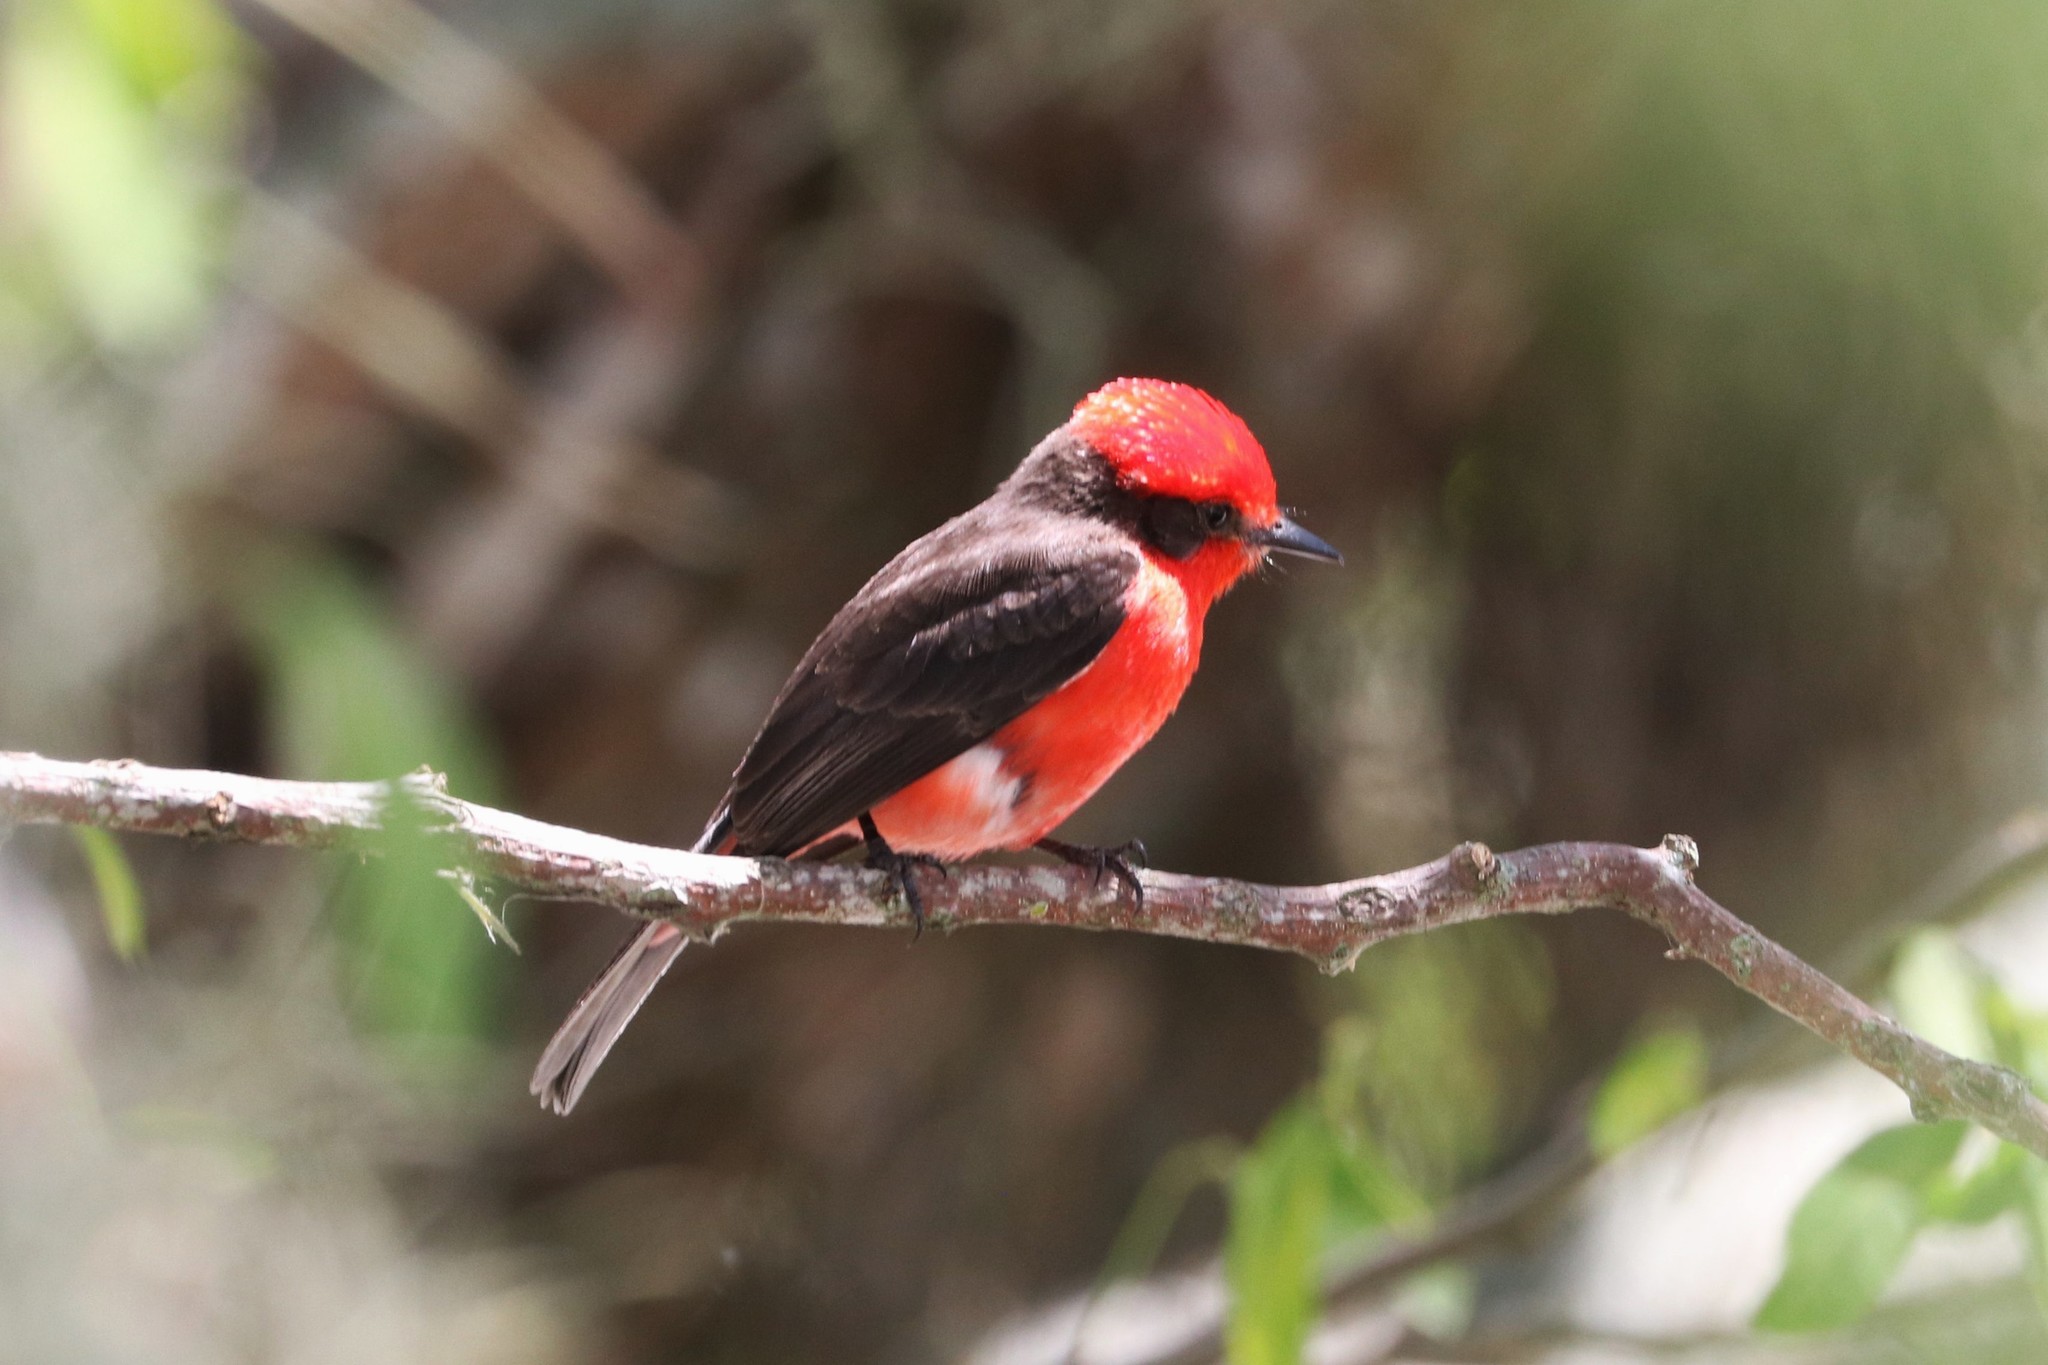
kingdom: Animalia
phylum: Chordata
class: Aves
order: Passeriformes
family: Tyrannidae
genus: Pyrocephalus
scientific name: Pyrocephalus rubinus
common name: Vermilion flycatcher
